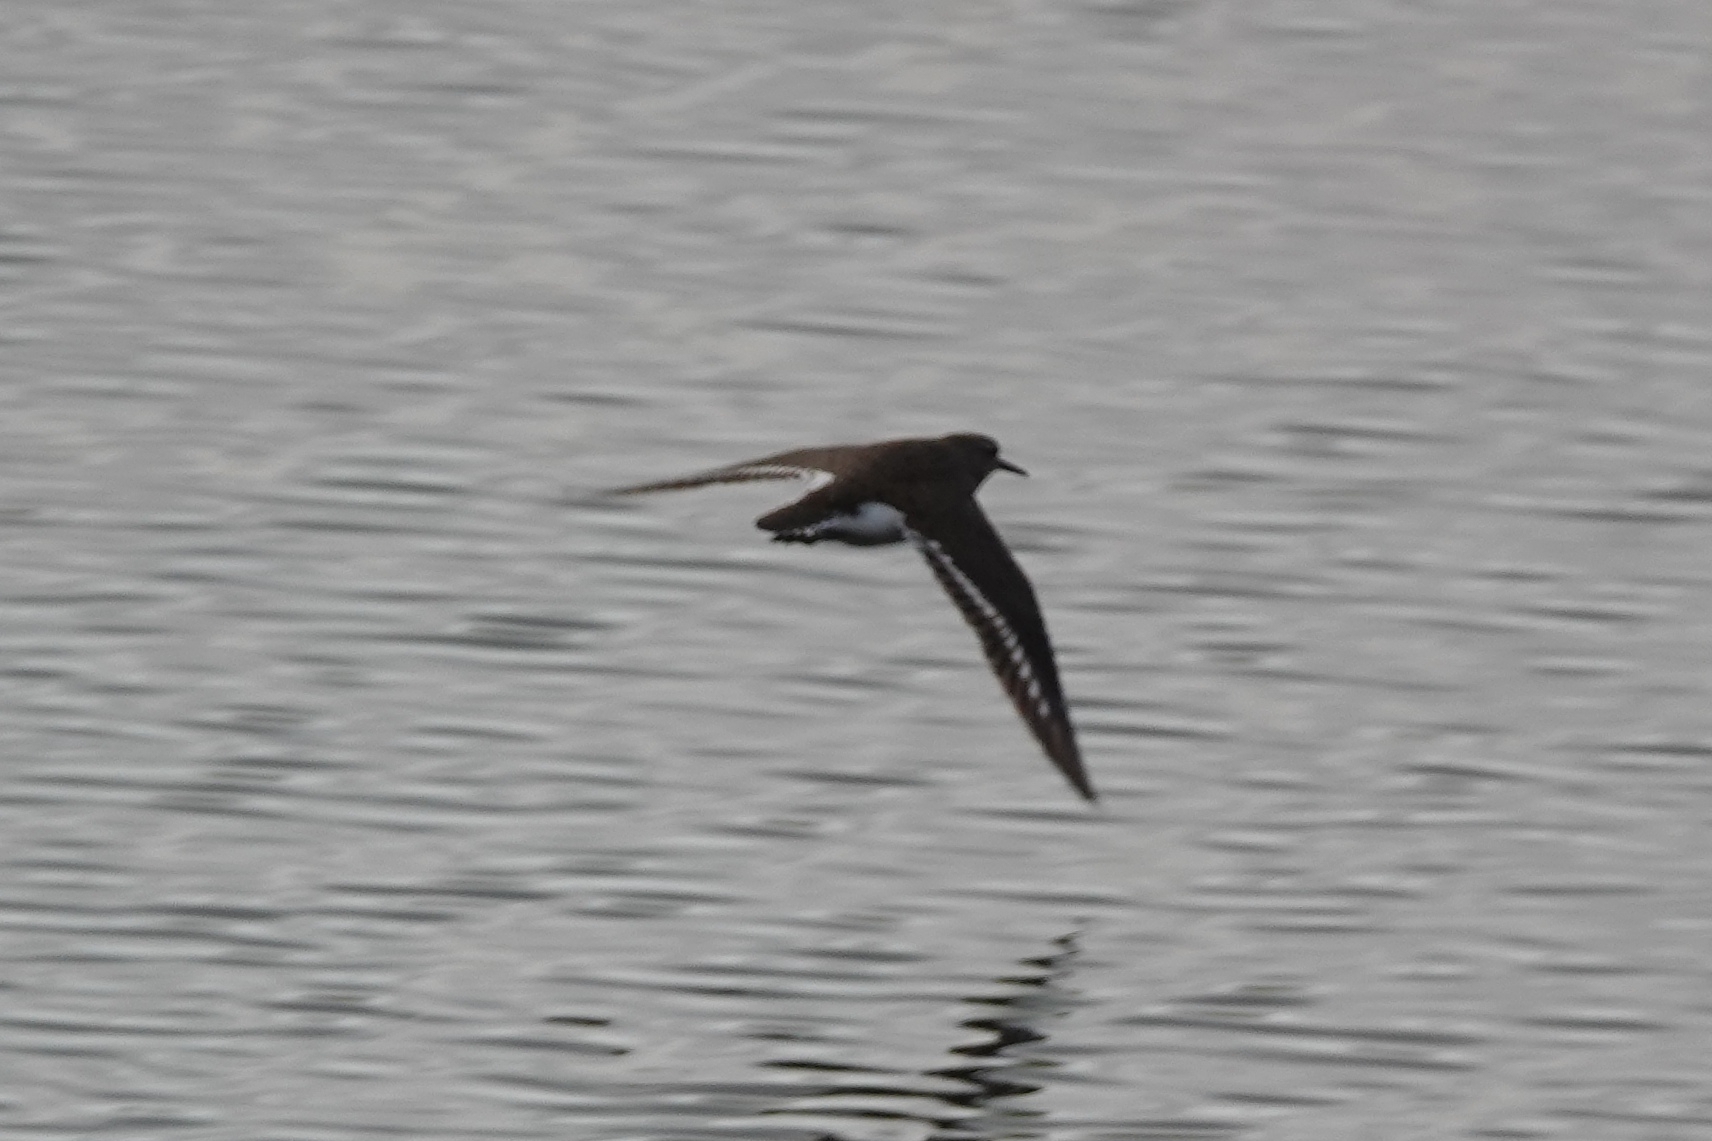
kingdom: Animalia
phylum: Chordata
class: Aves
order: Charadriiformes
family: Scolopacidae
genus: Actitis
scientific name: Actitis hypoleucos
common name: Common sandpiper
